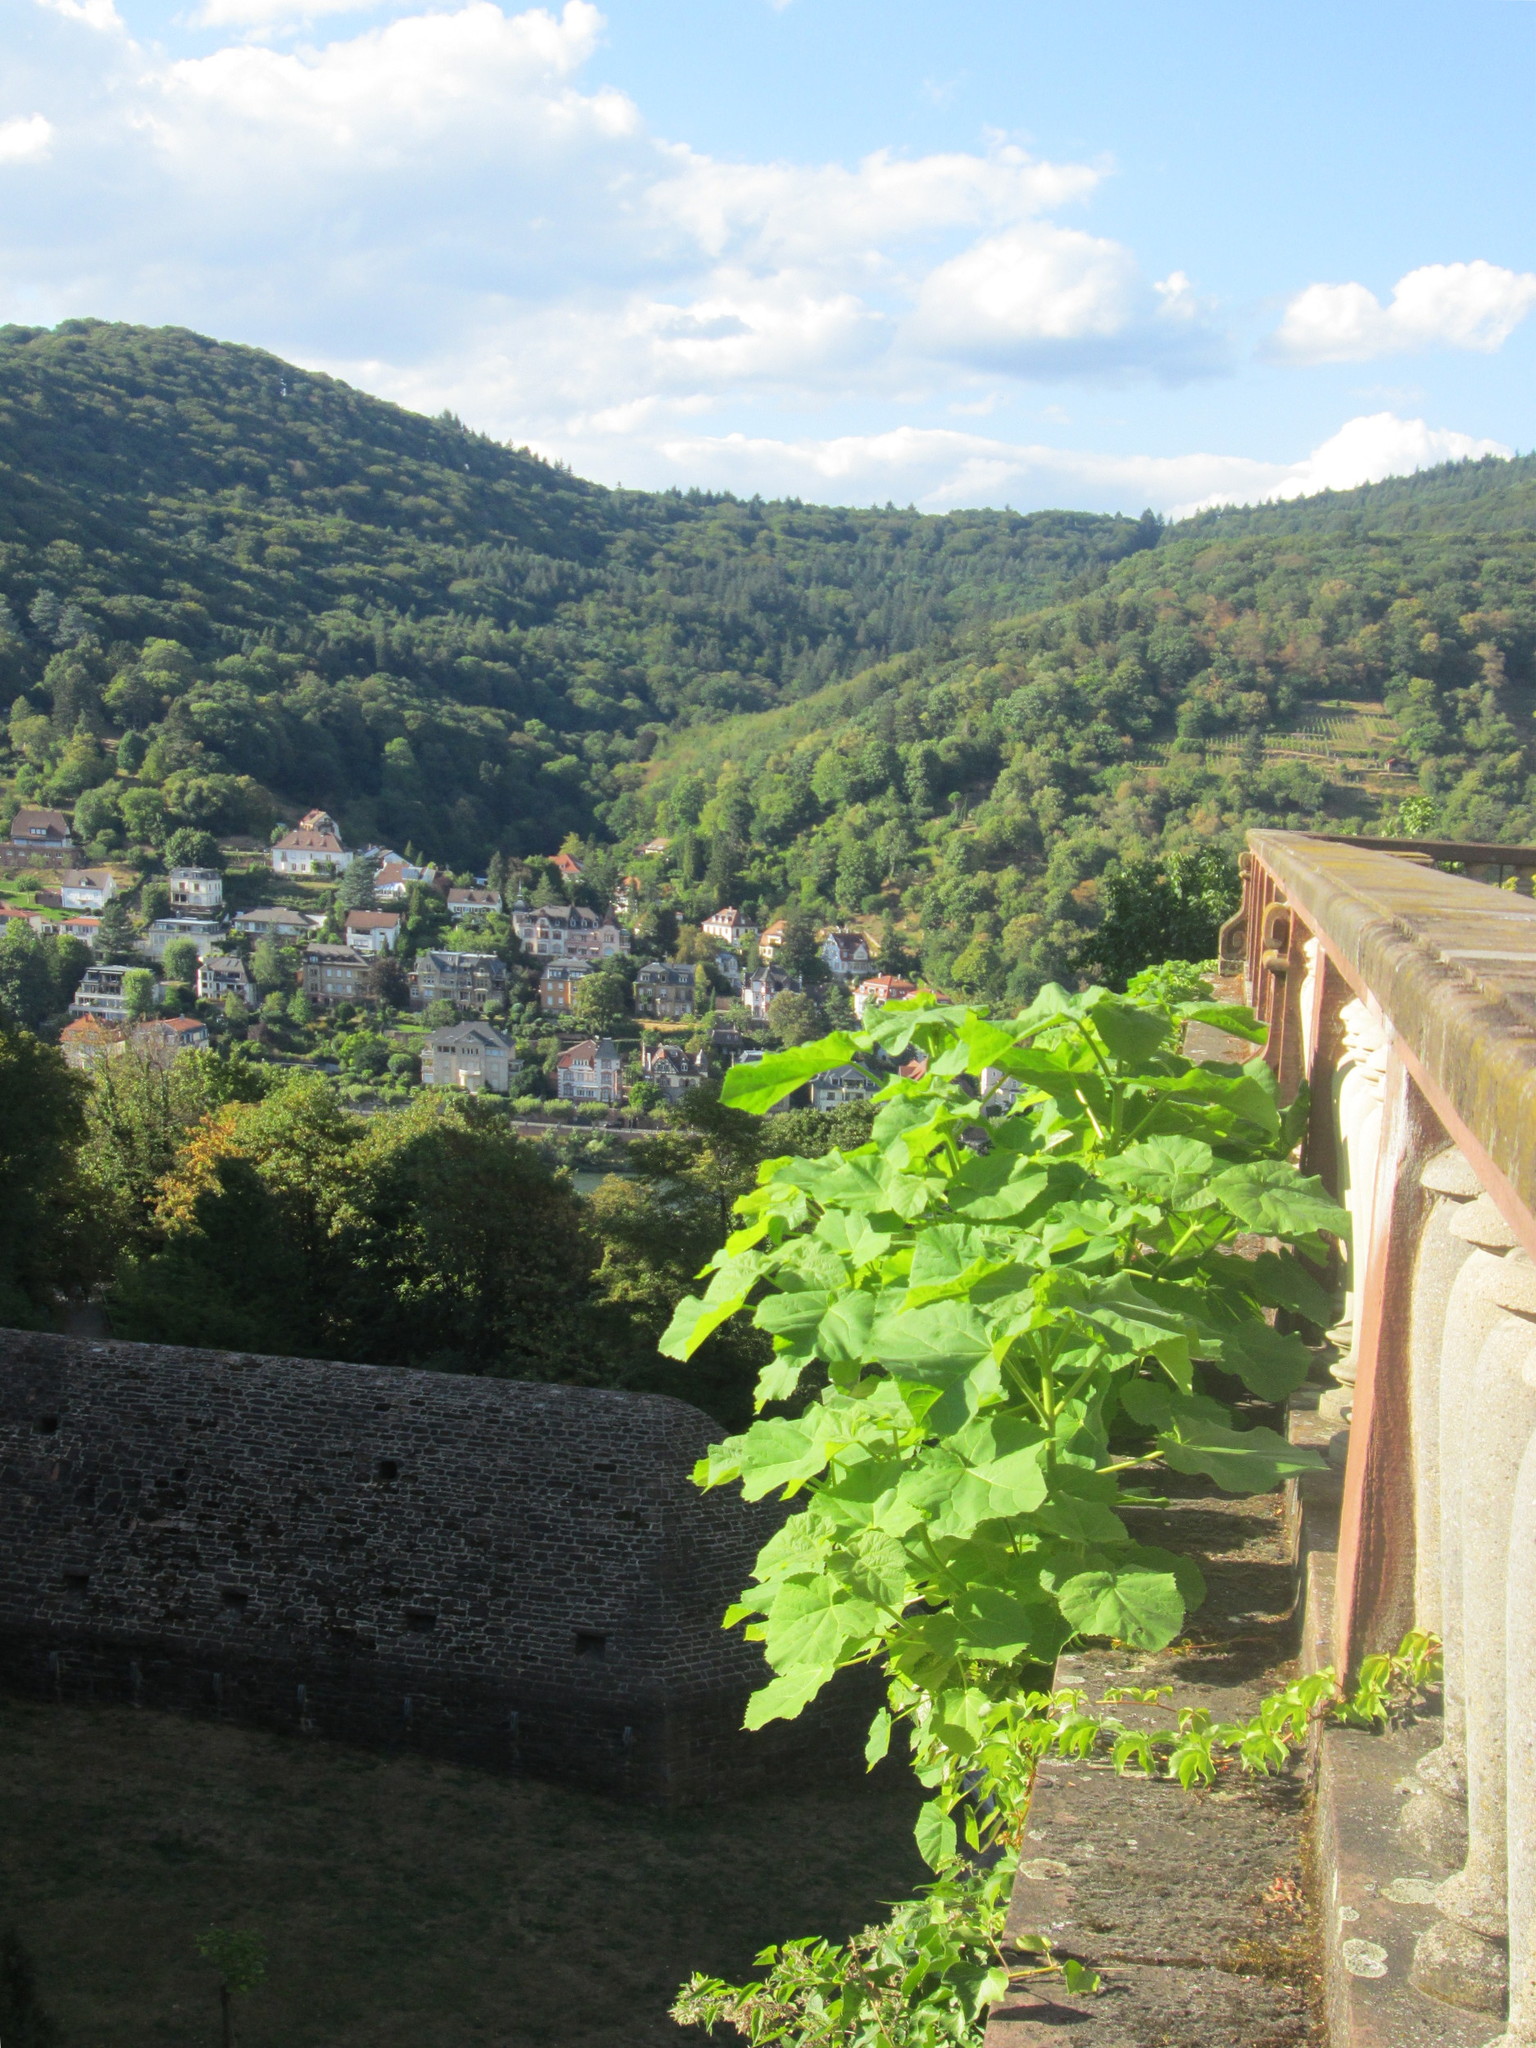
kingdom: Plantae
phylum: Tracheophyta
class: Magnoliopsida
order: Lamiales
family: Paulowniaceae
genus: Paulownia
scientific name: Paulownia tomentosa
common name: Foxglove-tree
